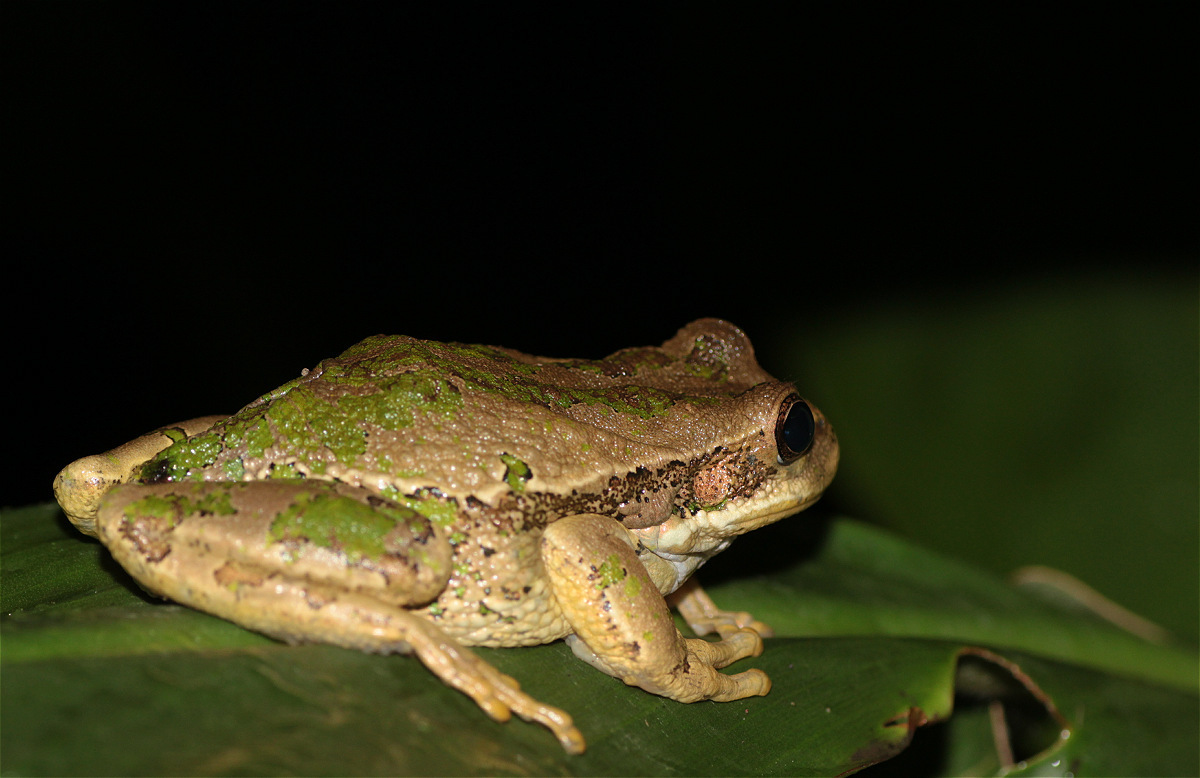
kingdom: Animalia
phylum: Chordata
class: Amphibia
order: Anura
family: Hemiphractidae
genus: Gastrotheca
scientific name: Gastrotheca cuencana
